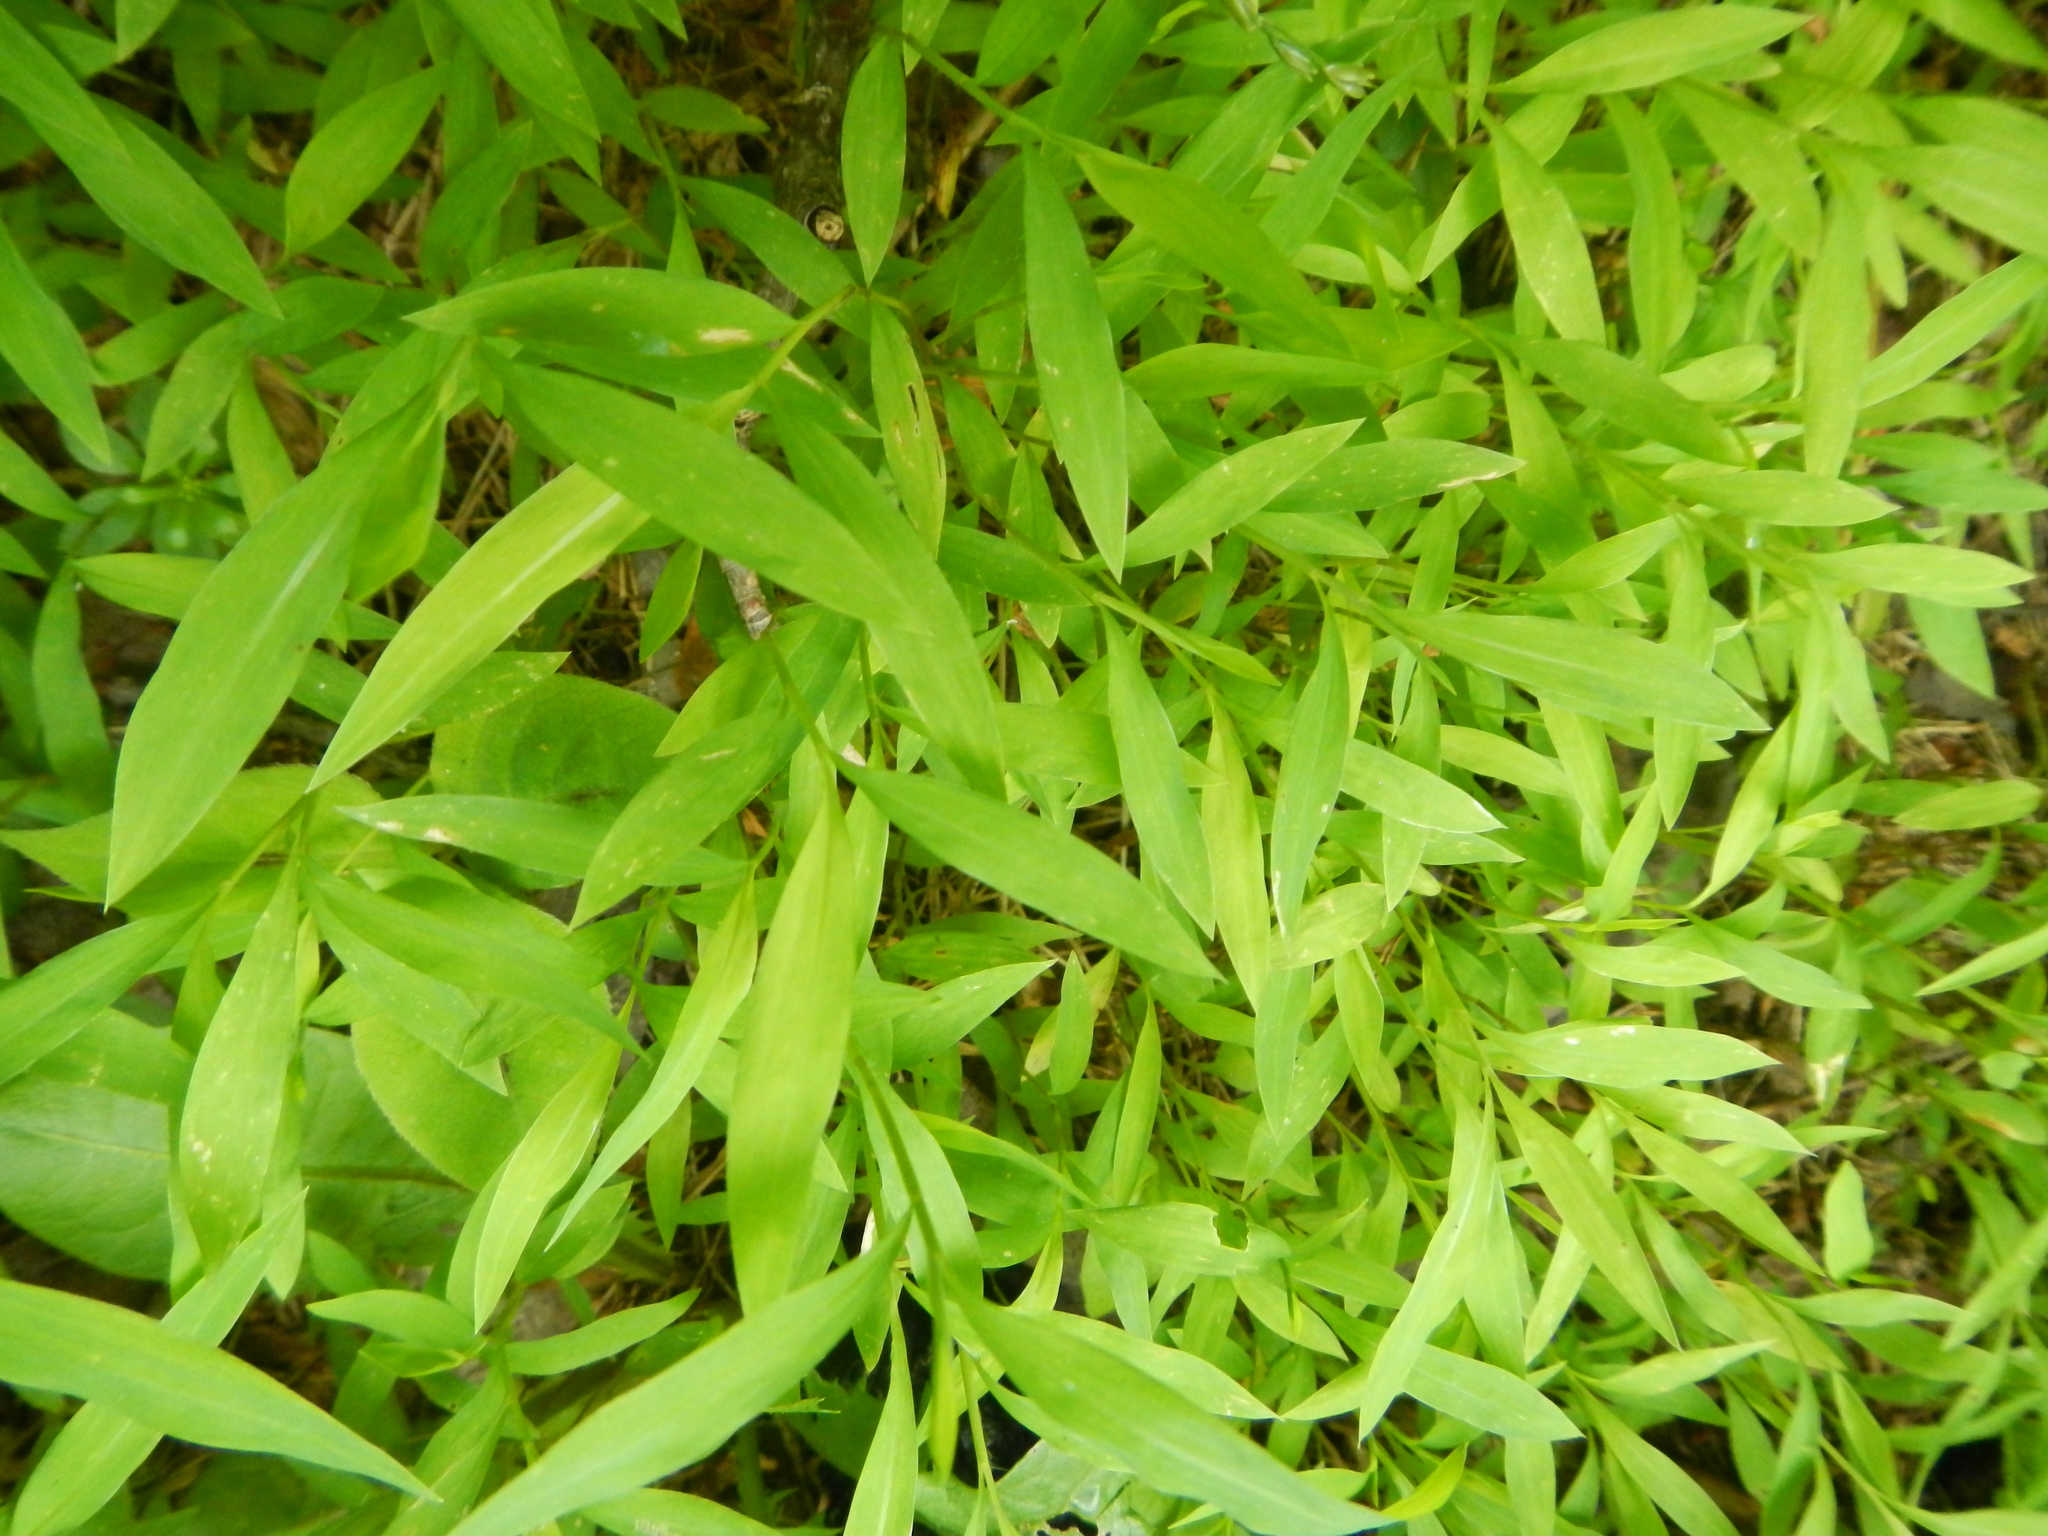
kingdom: Plantae
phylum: Tracheophyta
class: Liliopsida
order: Poales
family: Poaceae
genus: Microstegium
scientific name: Microstegium vimineum
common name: Japanese stiltgrass
